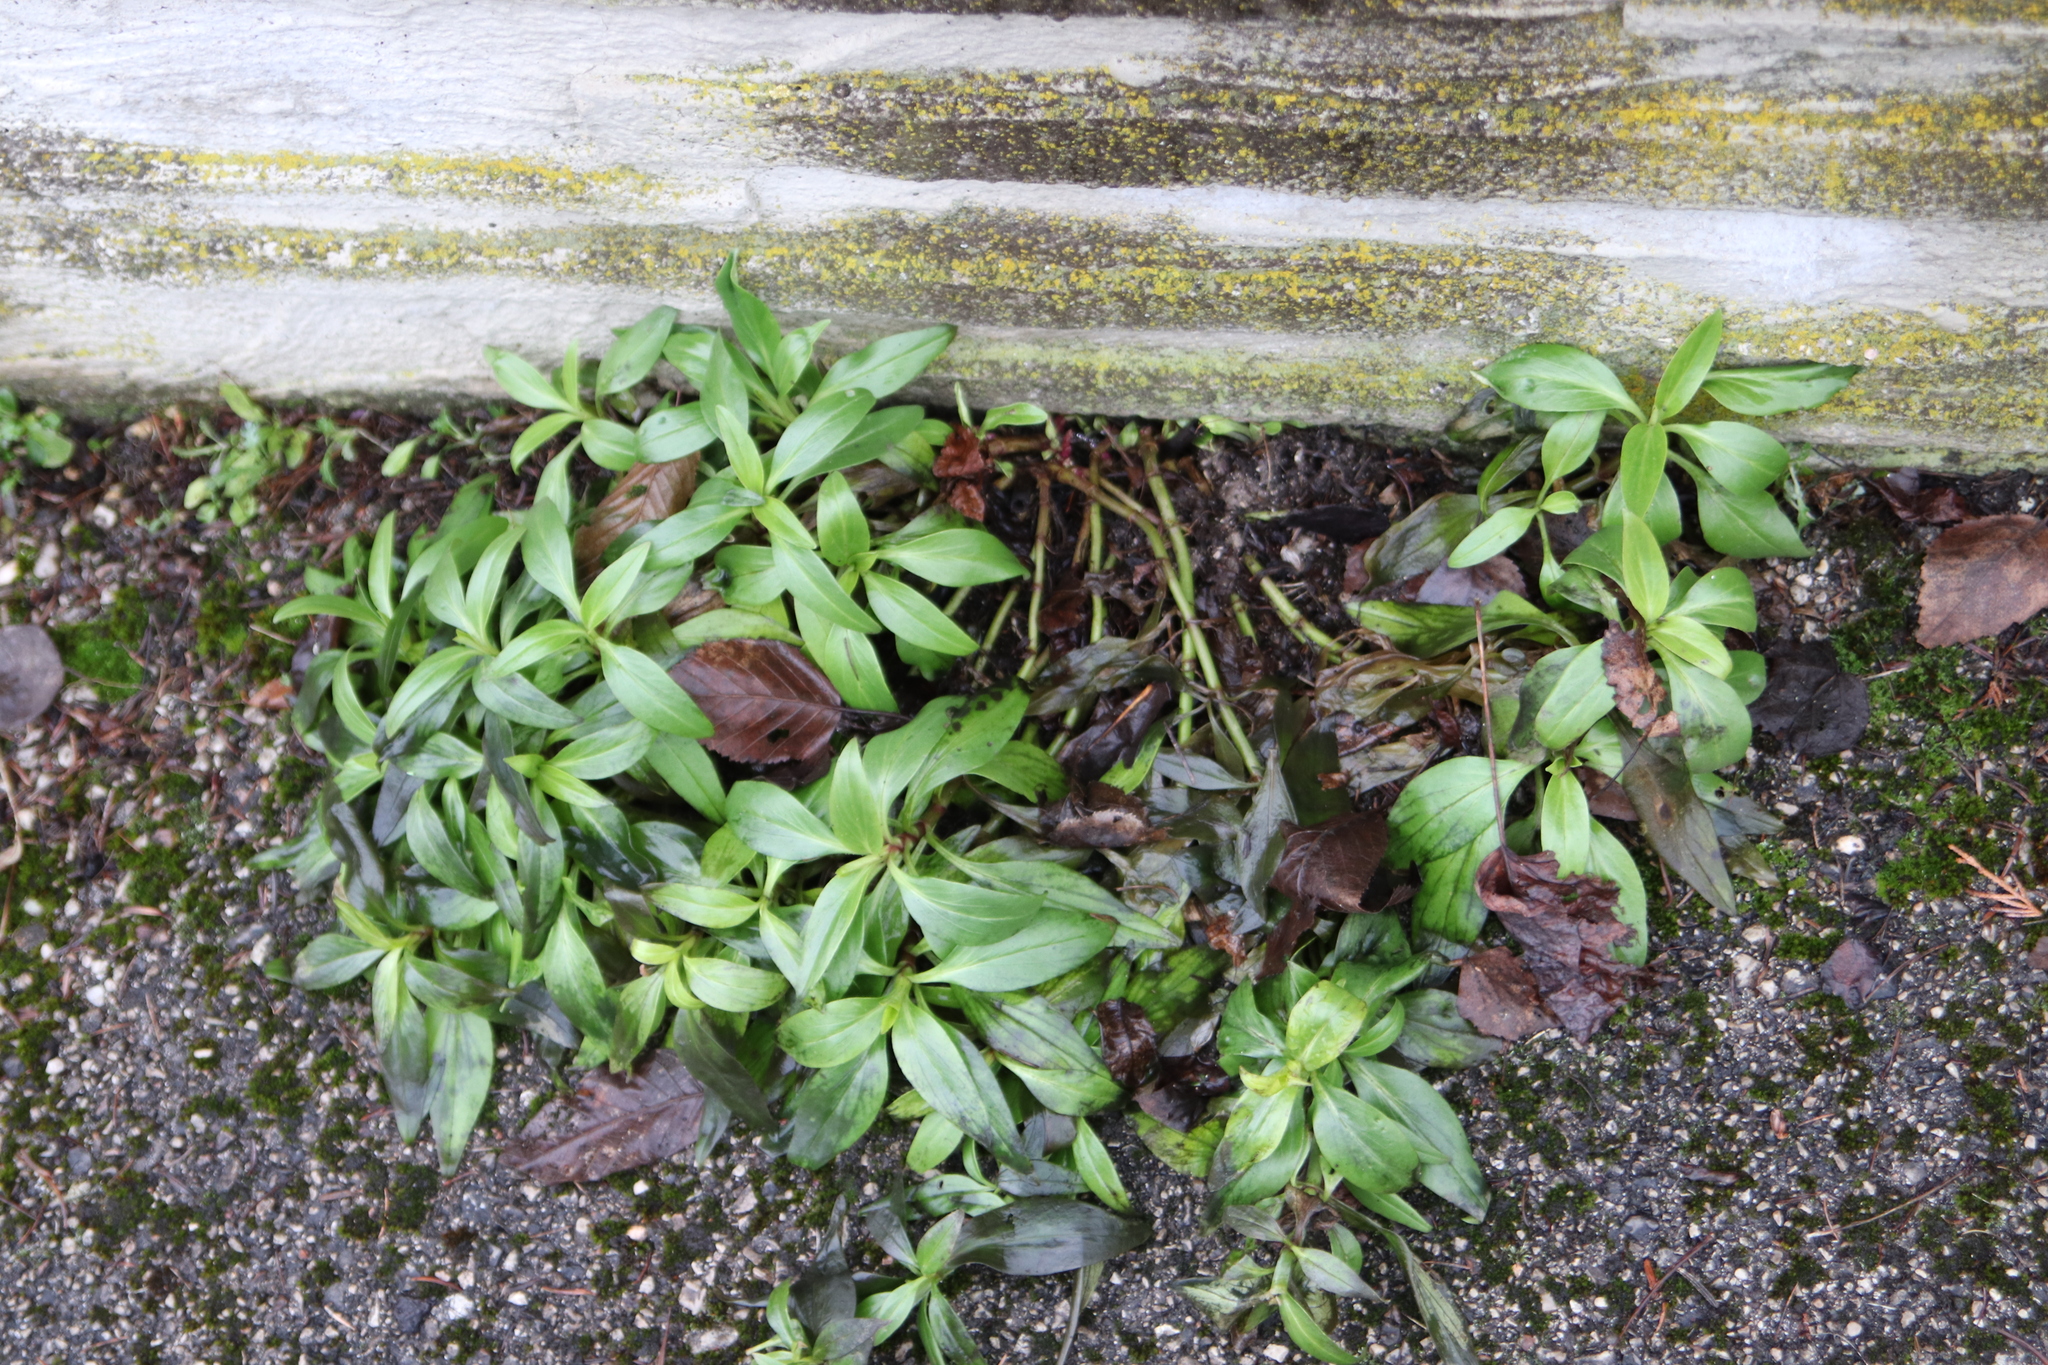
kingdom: Plantae
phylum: Tracheophyta
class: Magnoliopsida
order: Dipsacales
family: Caprifoliaceae
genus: Centranthus
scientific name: Centranthus ruber
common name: Red valerian
